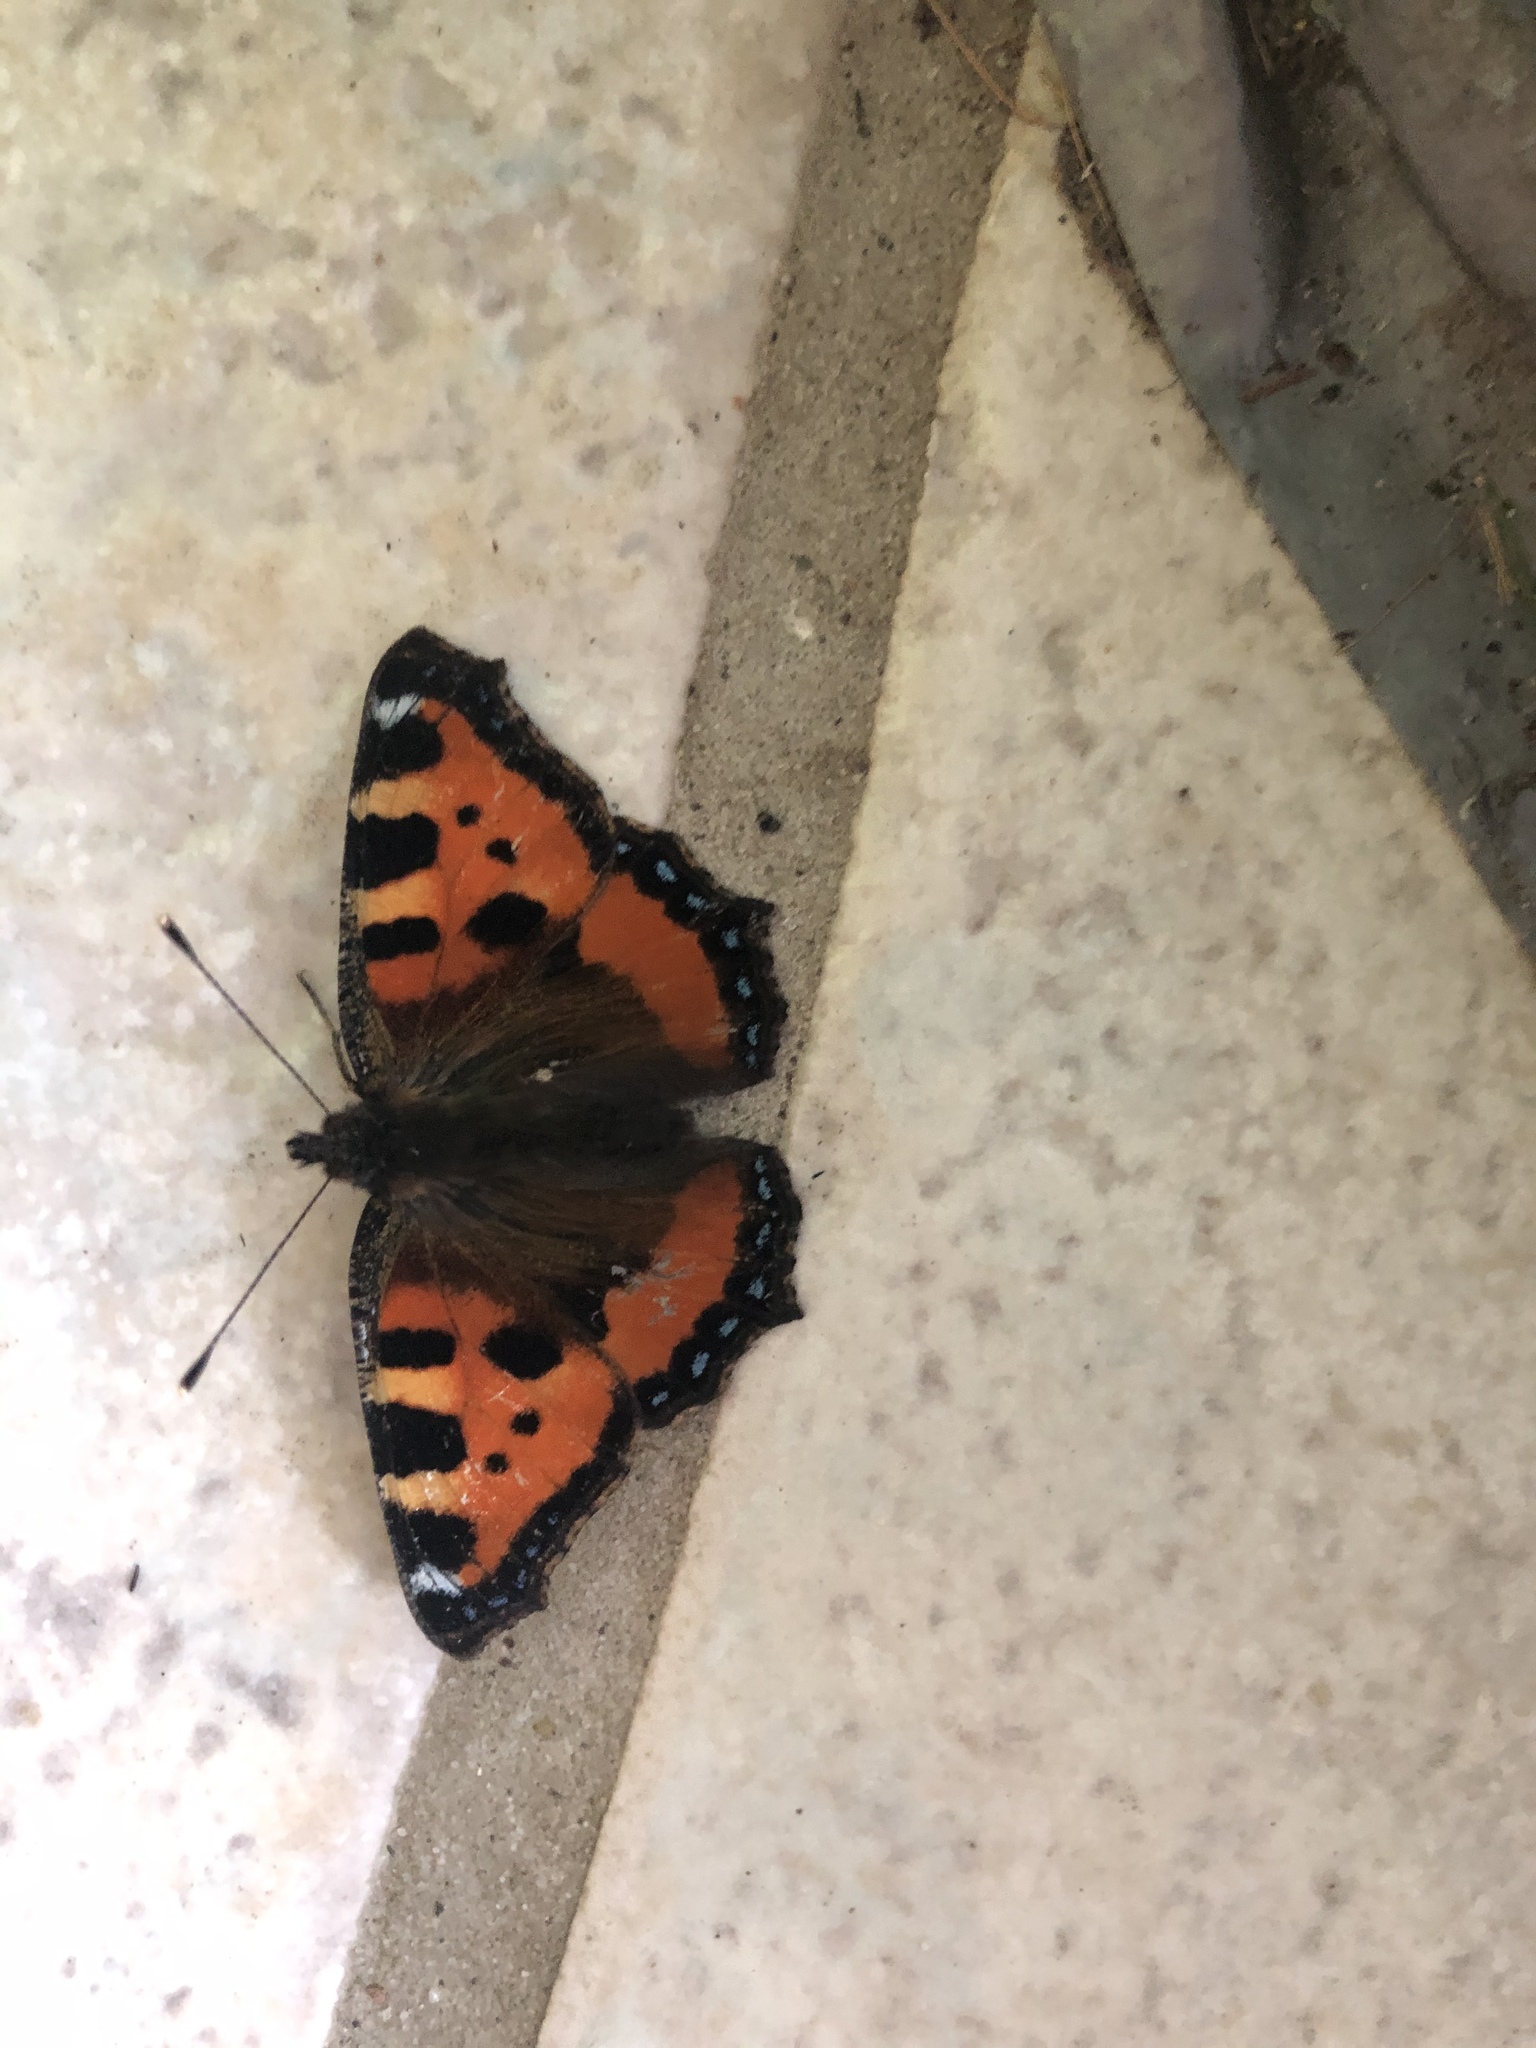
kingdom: Animalia
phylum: Arthropoda
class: Insecta
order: Lepidoptera
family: Nymphalidae
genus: Aglais
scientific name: Aglais urticae
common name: Small tortoiseshell
